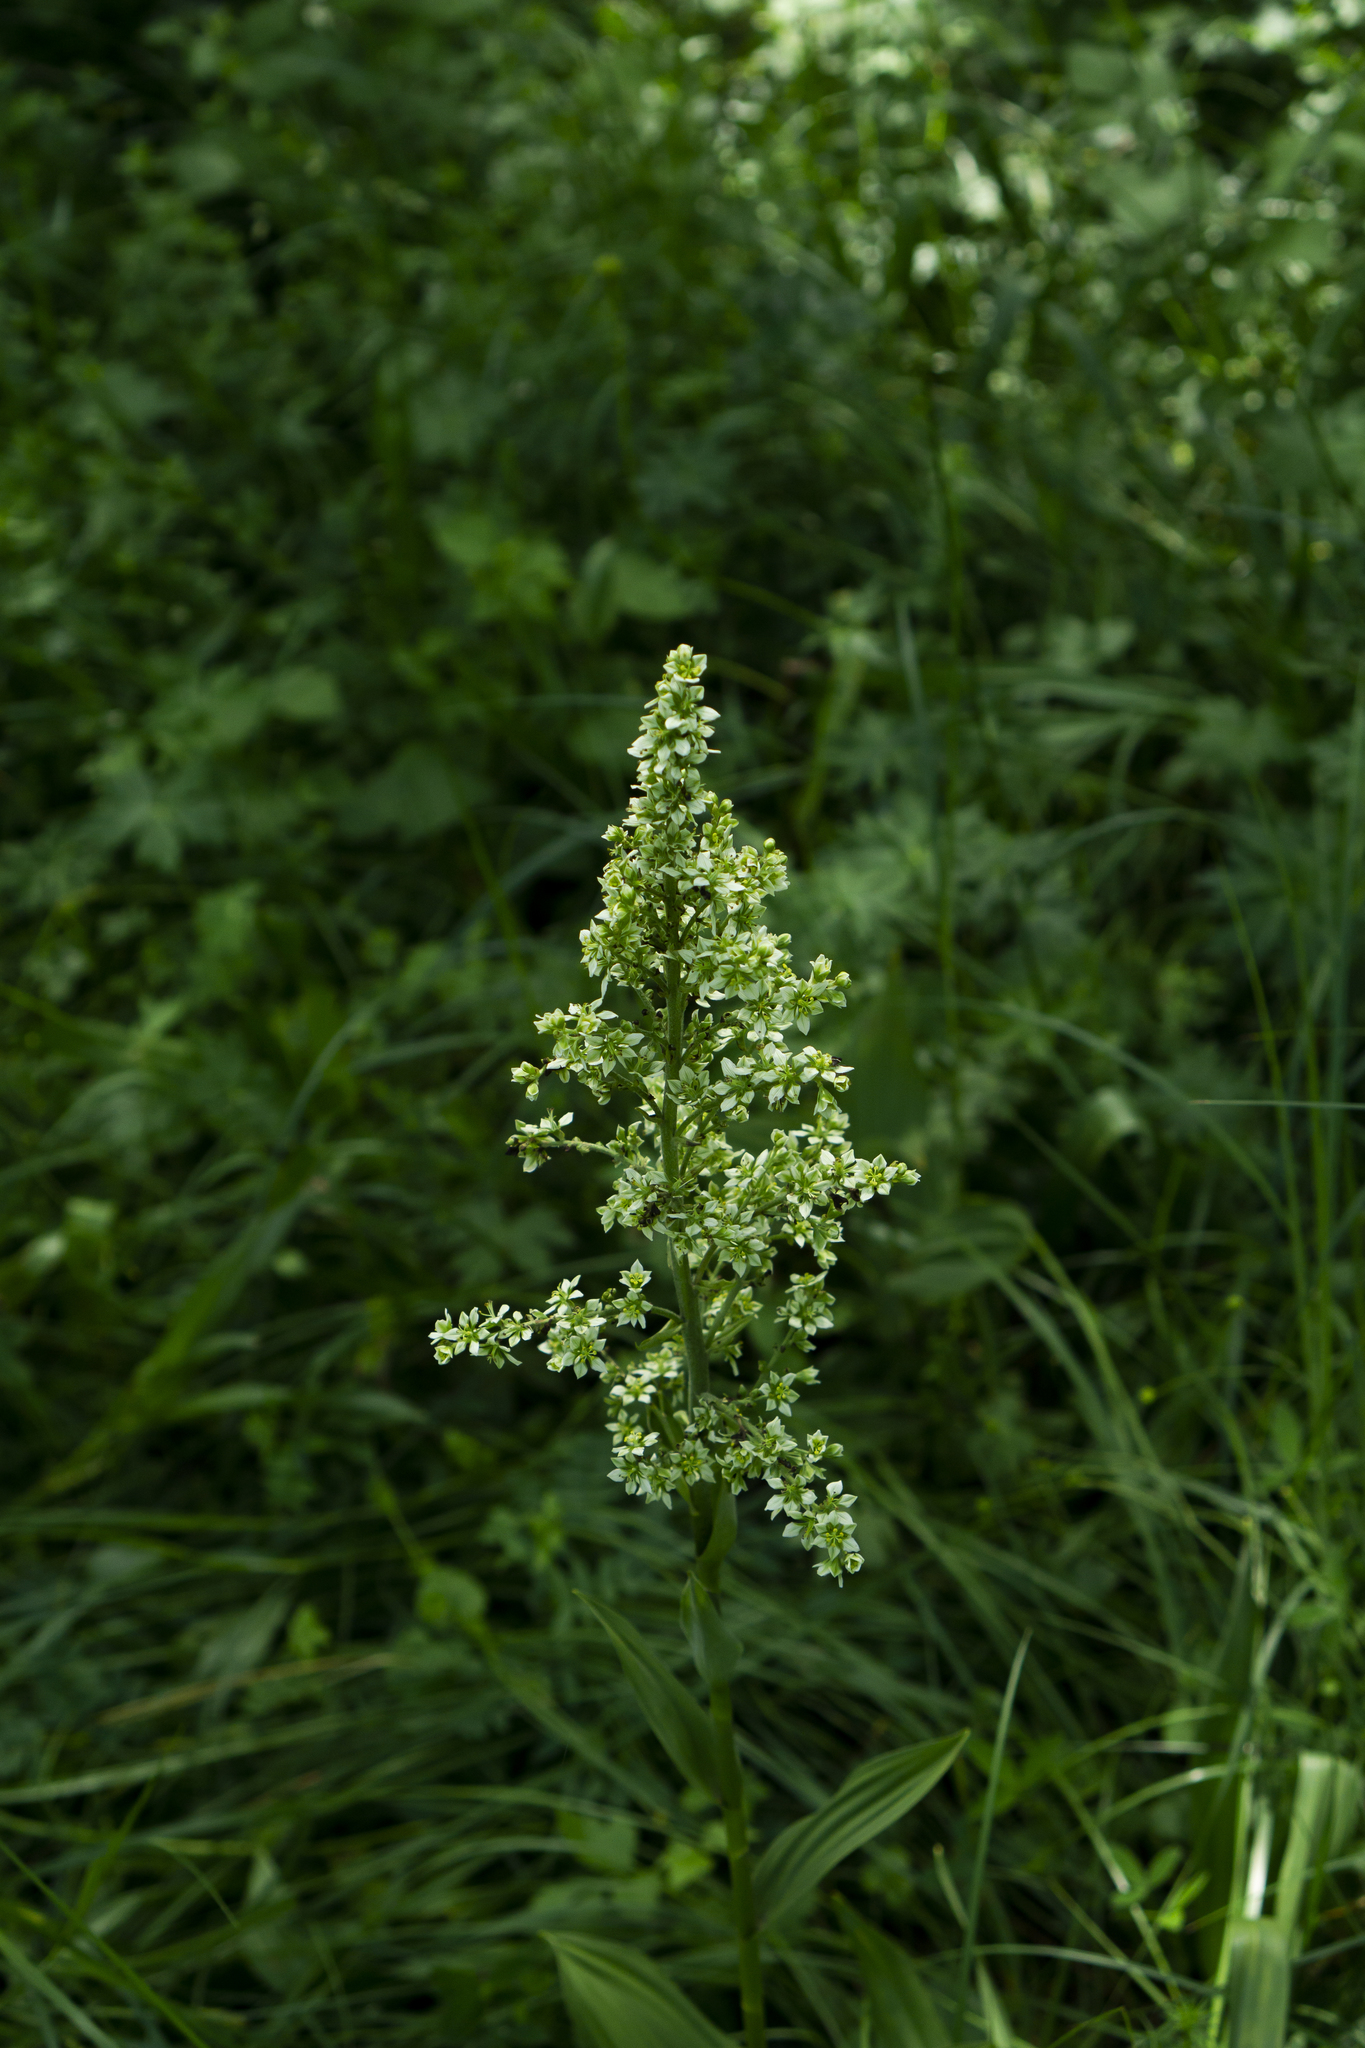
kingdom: Plantae
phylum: Tracheophyta
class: Liliopsida
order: Liliales
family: Melanthiaceae
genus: Veratrum
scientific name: Veratrum album
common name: White veratrum
